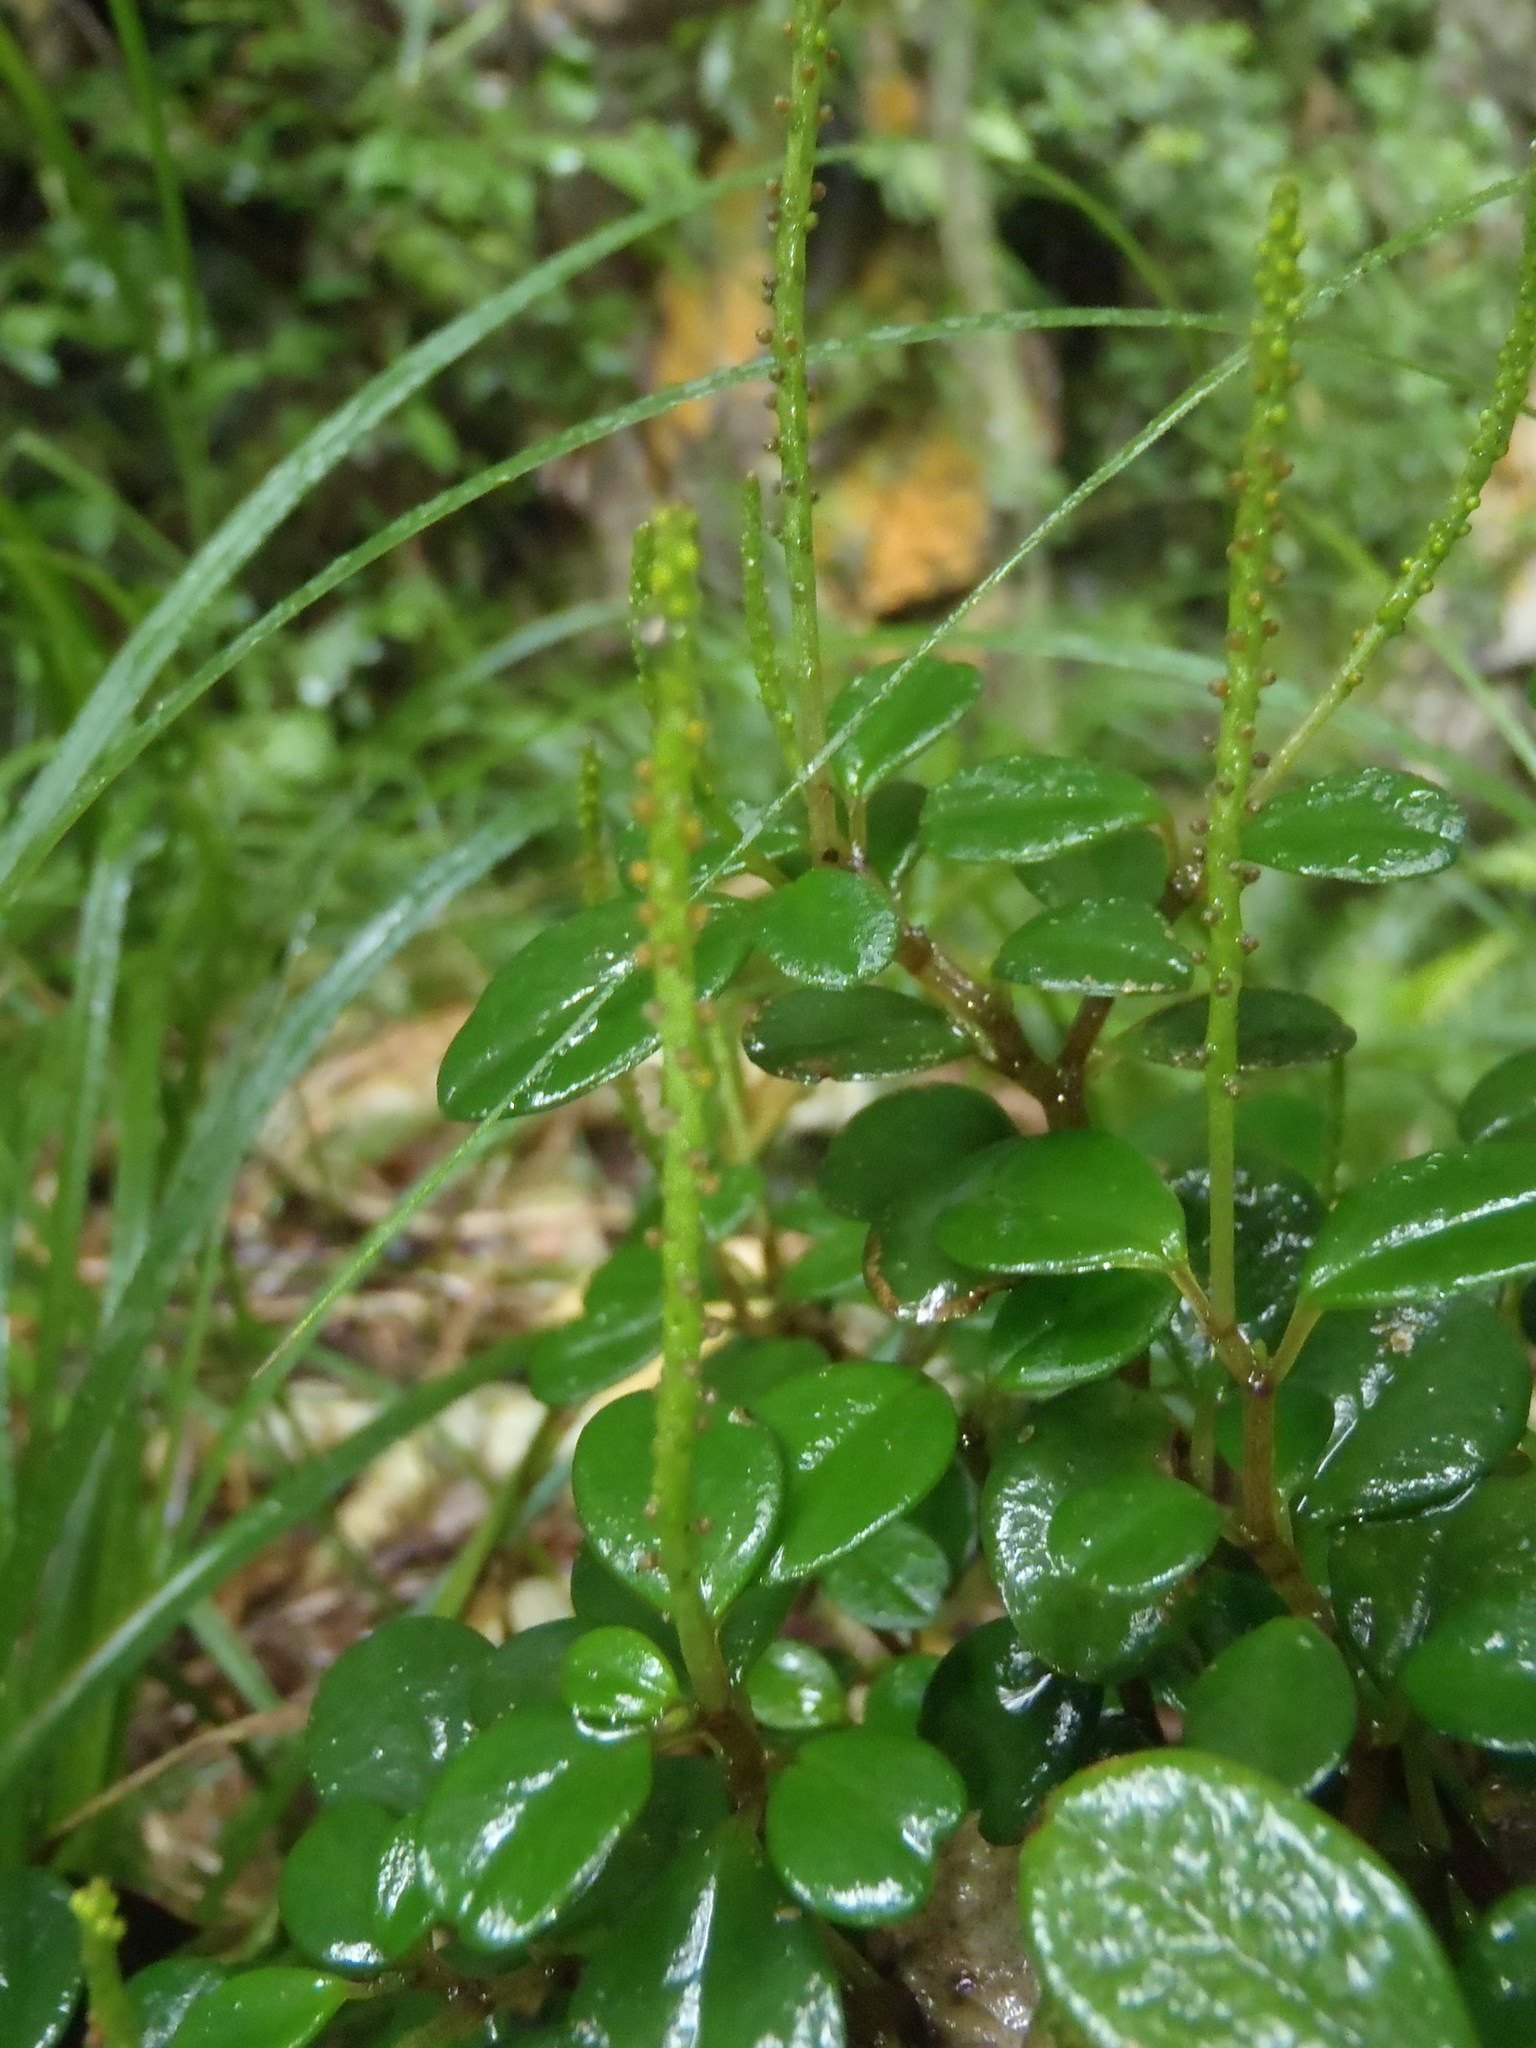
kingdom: Plantae
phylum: Tracheophyta
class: Magnoliopsida
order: Piperales
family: Piperaceae
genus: Peperomia
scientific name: Peperomia retusa
